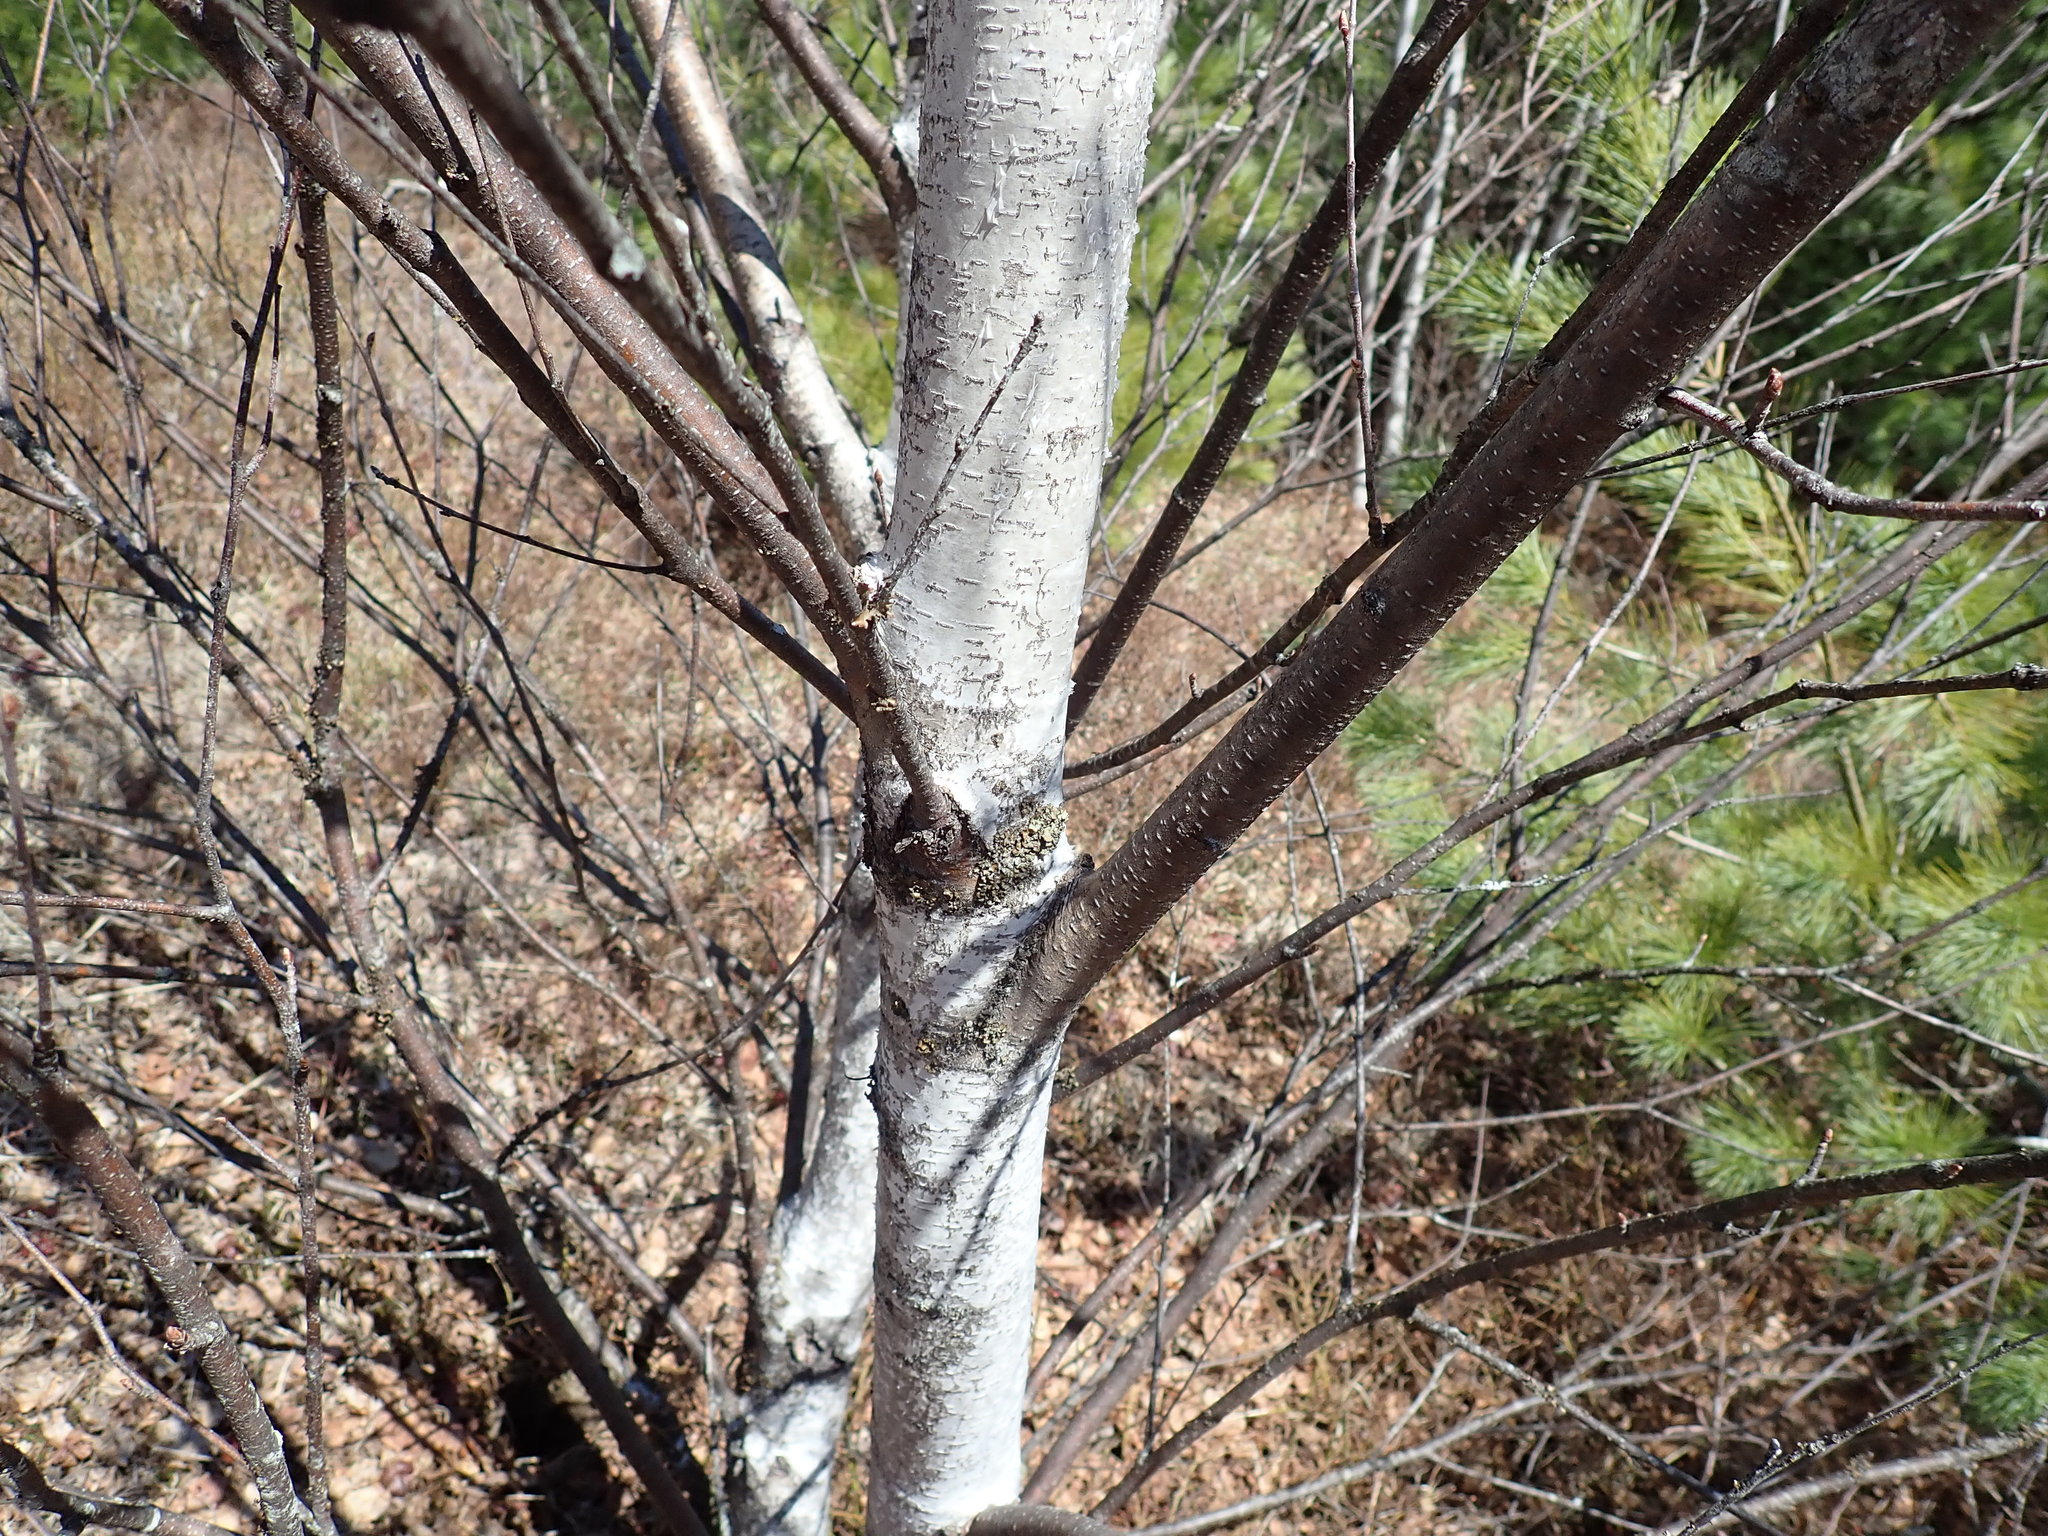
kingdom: Plantae
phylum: Tracheophyta
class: Magnoliopsida
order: Fagales
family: Betulaceae
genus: Betula
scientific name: Betula populifolia
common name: Fire birch
